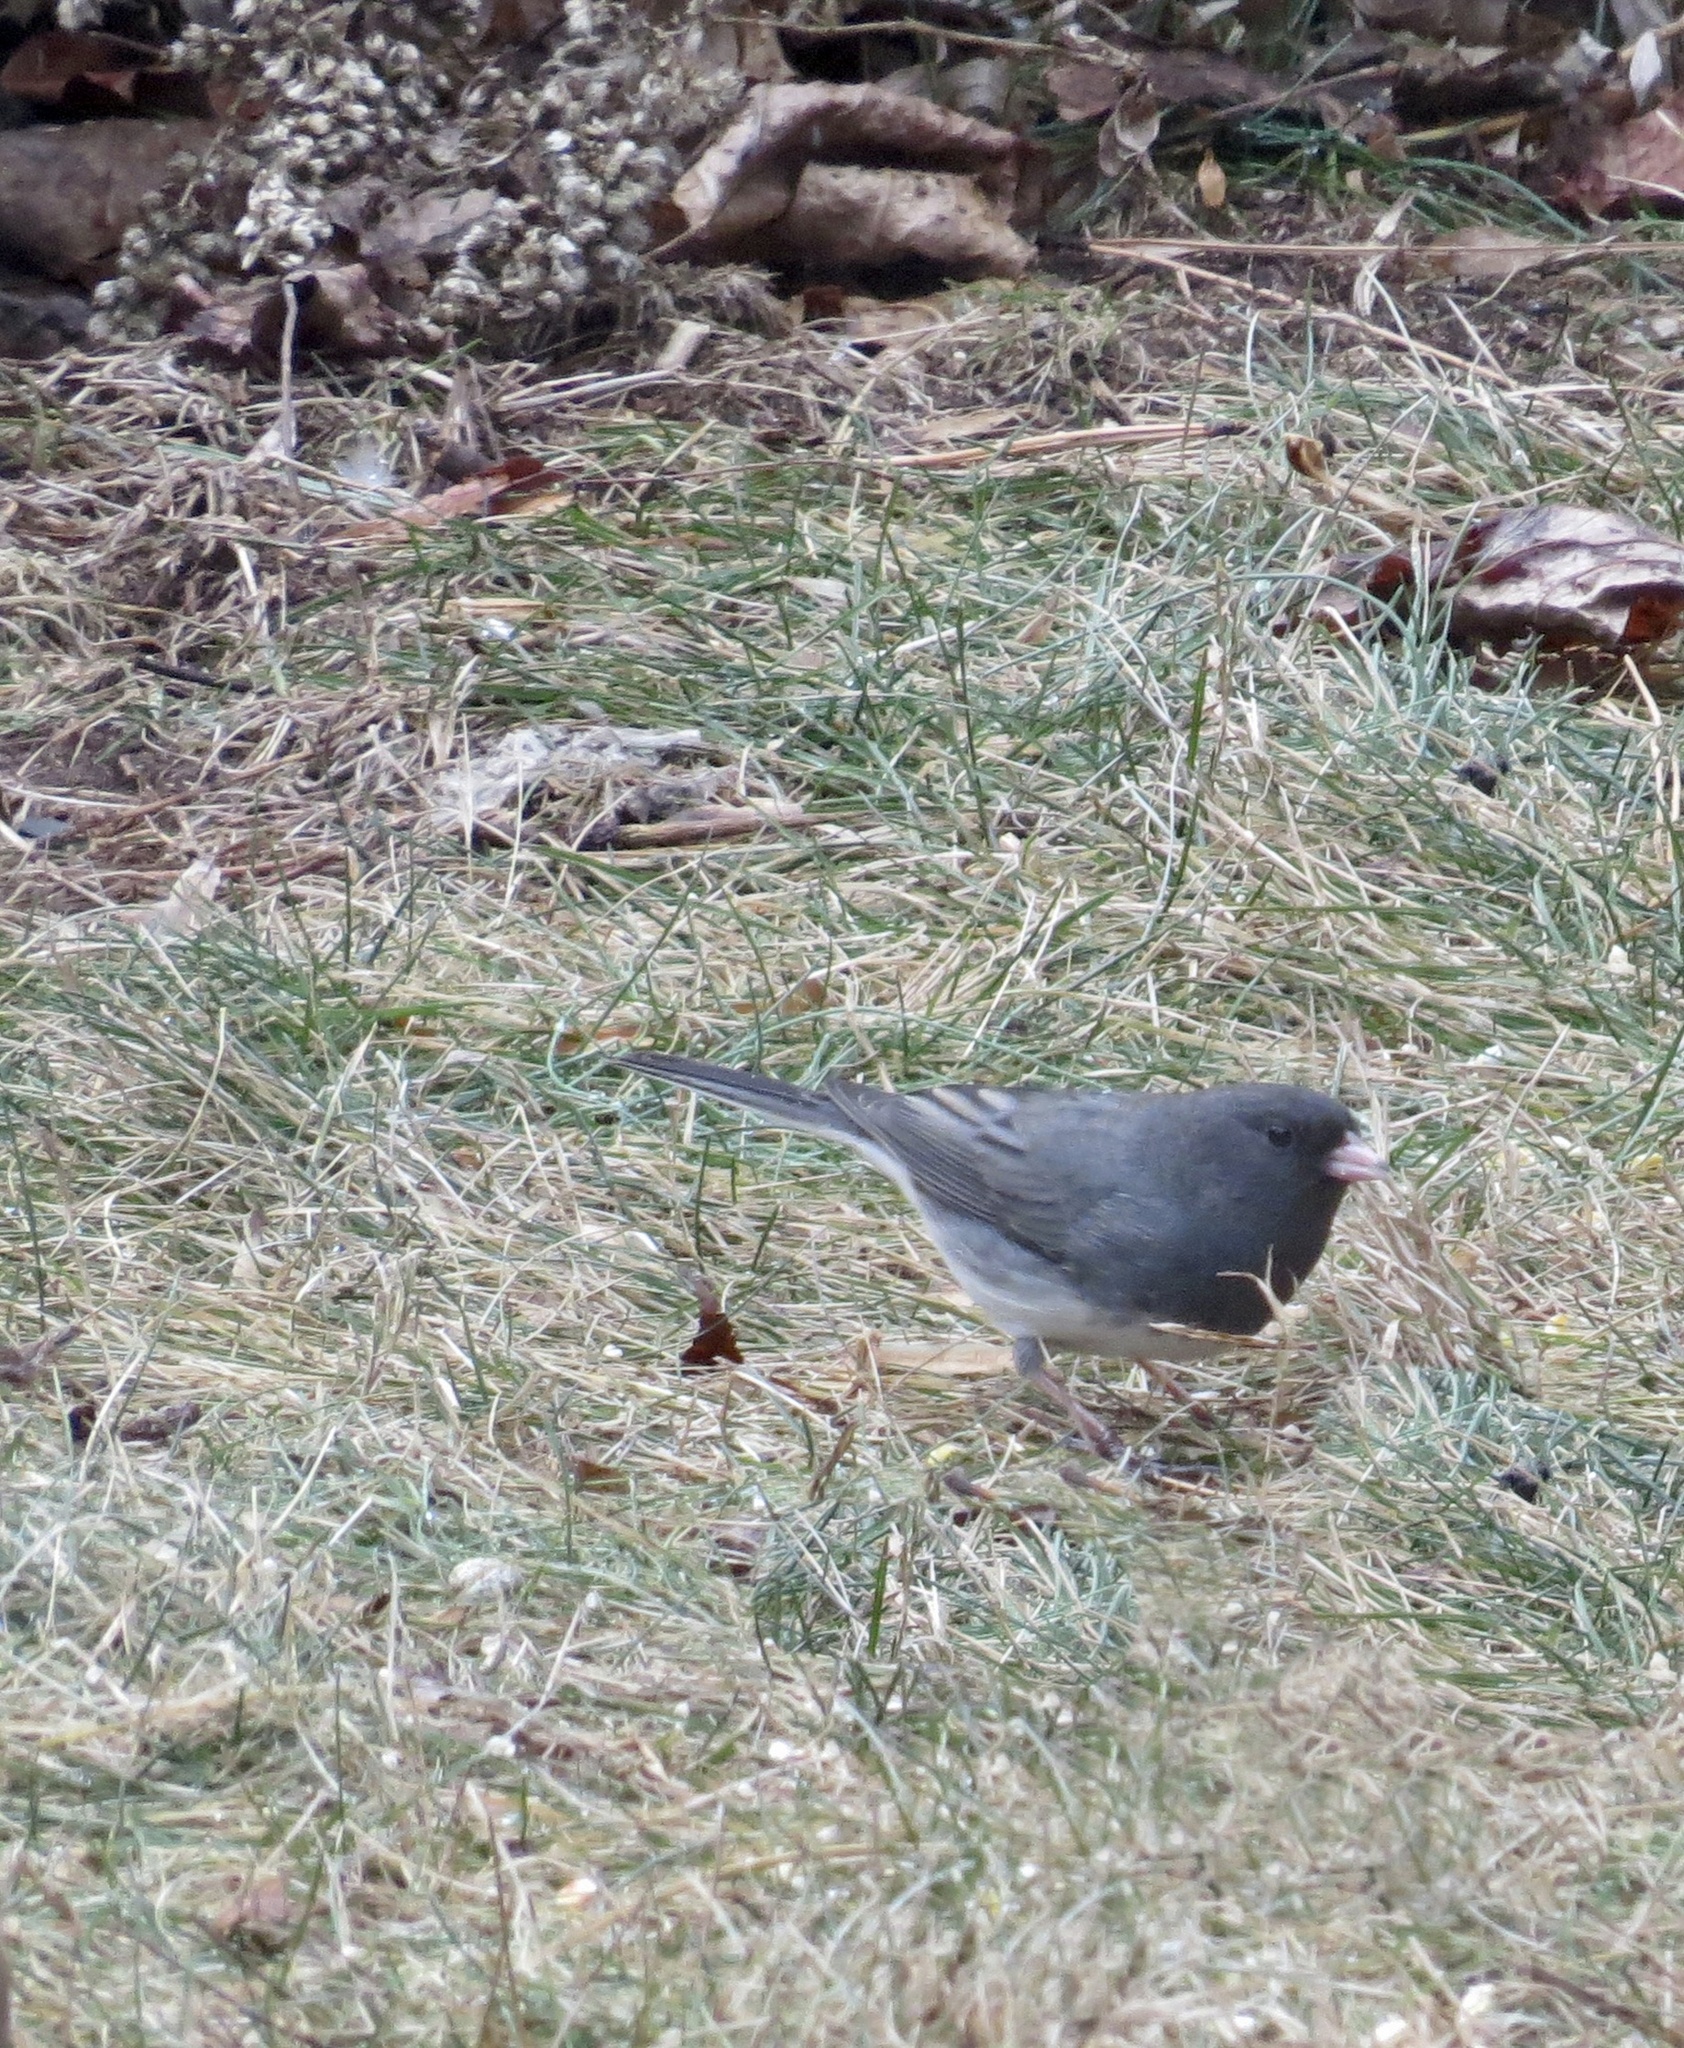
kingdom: Animalia
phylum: Chordata
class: Aves
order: Passeriformes
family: Passerellidae
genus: Junco
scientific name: Junco hyemalis
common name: Dark-eyed junco
